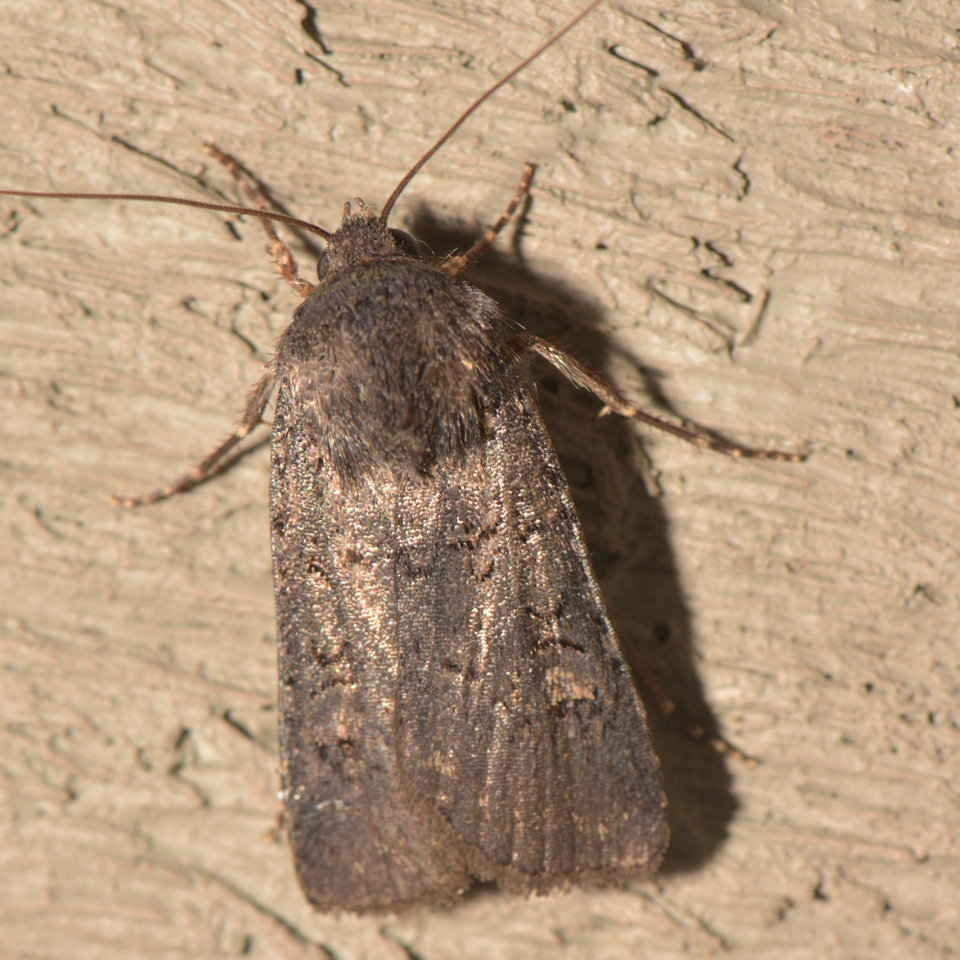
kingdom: Animalia
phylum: Arthropoda
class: Insecta
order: Lepidoptera
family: Noctuidae
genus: Euxoa
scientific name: Euxoa velleripennis
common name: Fleece-winged dart
